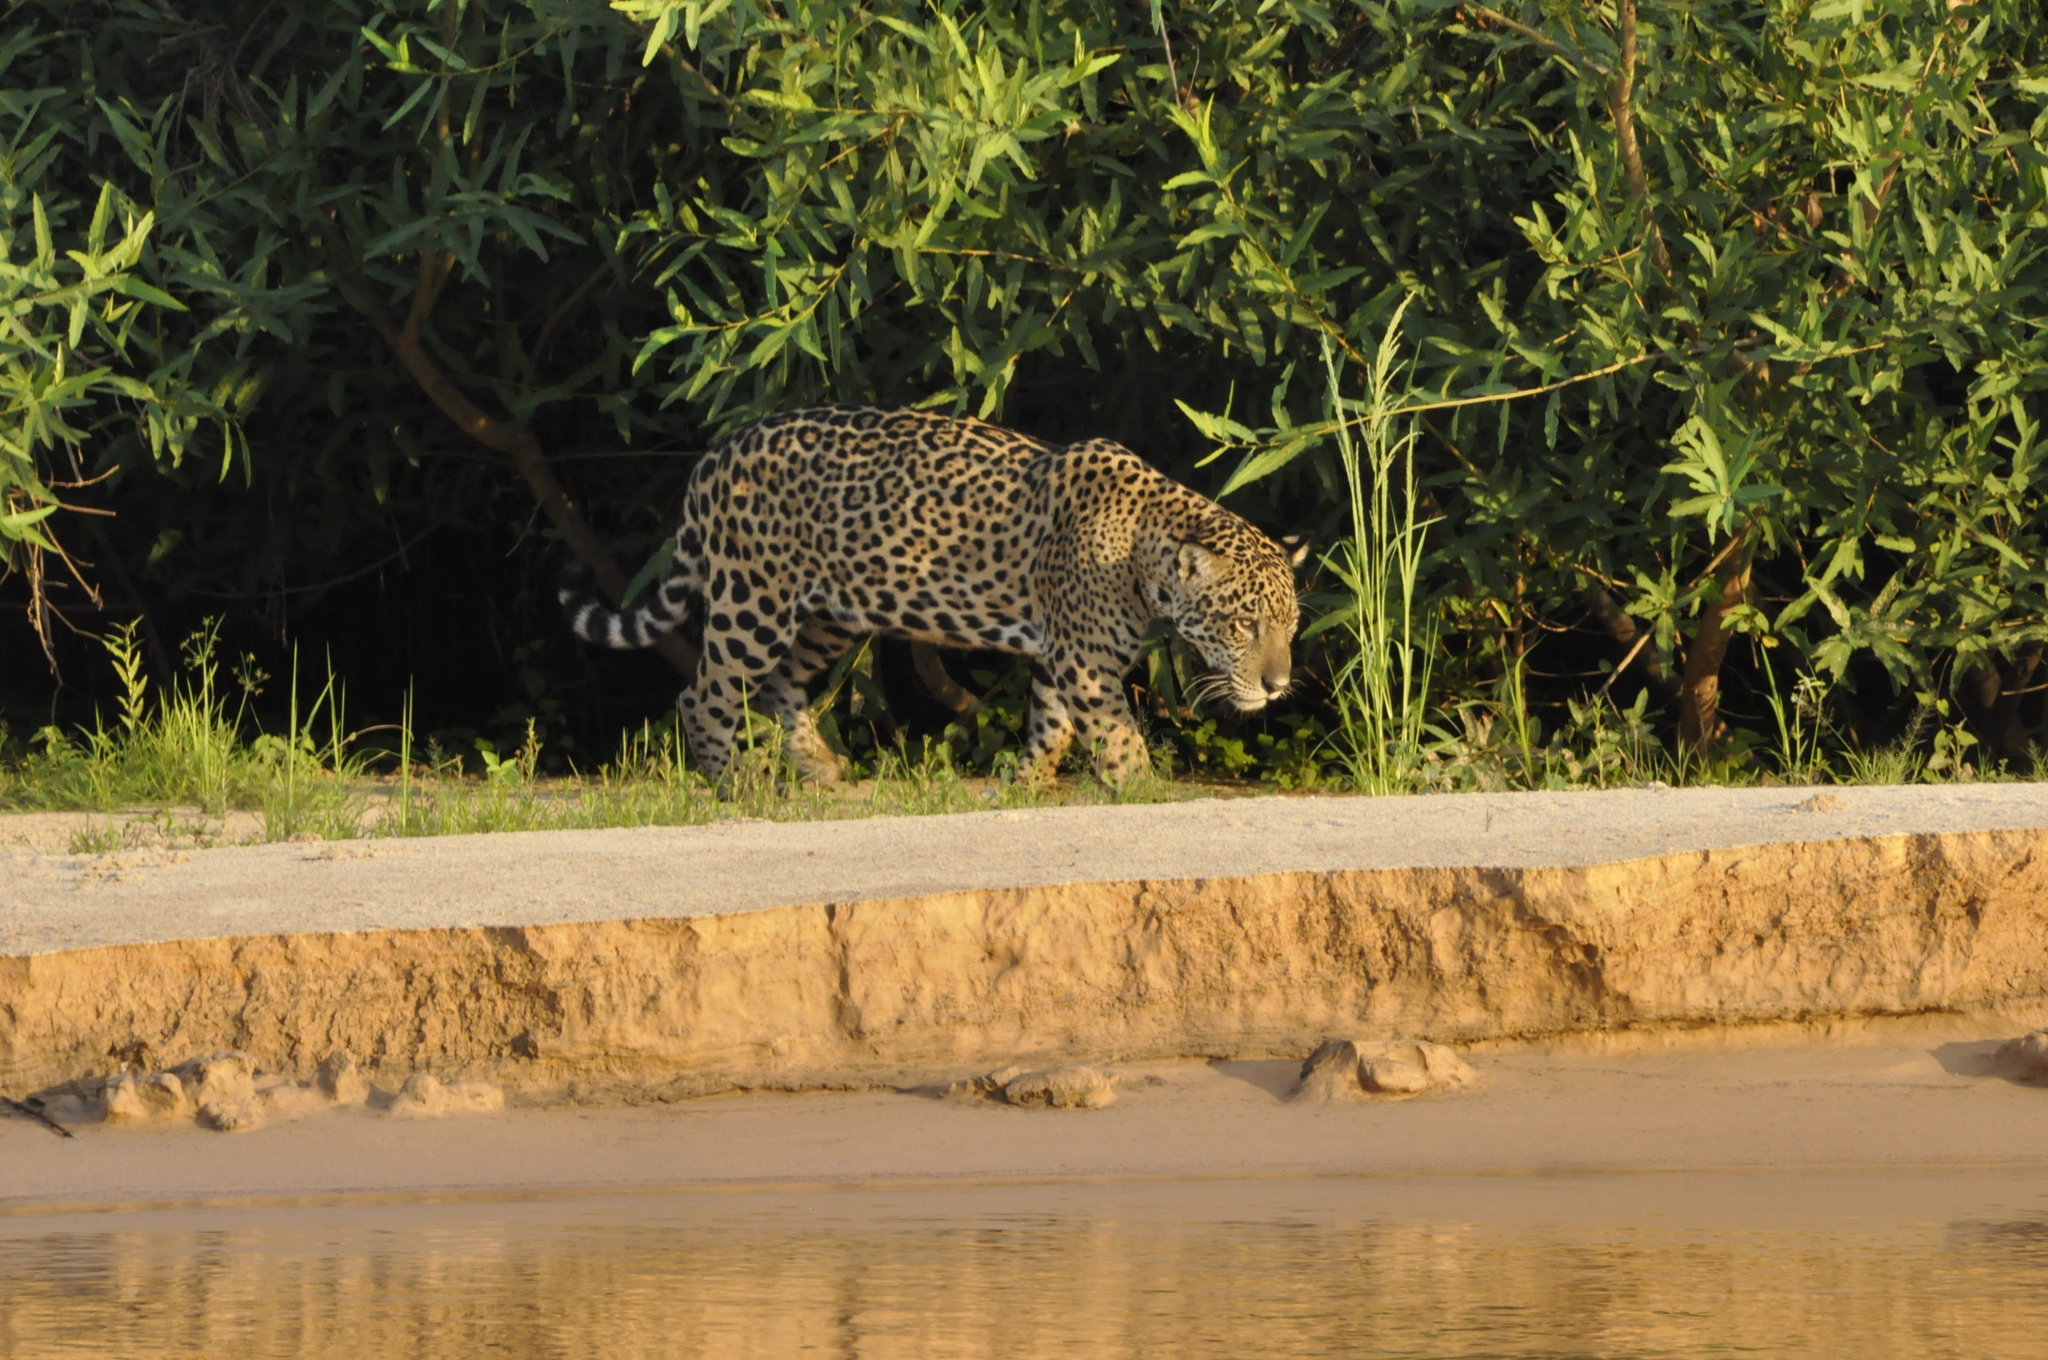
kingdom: Animalia
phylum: Chordata
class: Mammalia
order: Carnivora
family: Felidae
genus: Panthera
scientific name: Panthera onca
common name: Jaguar
